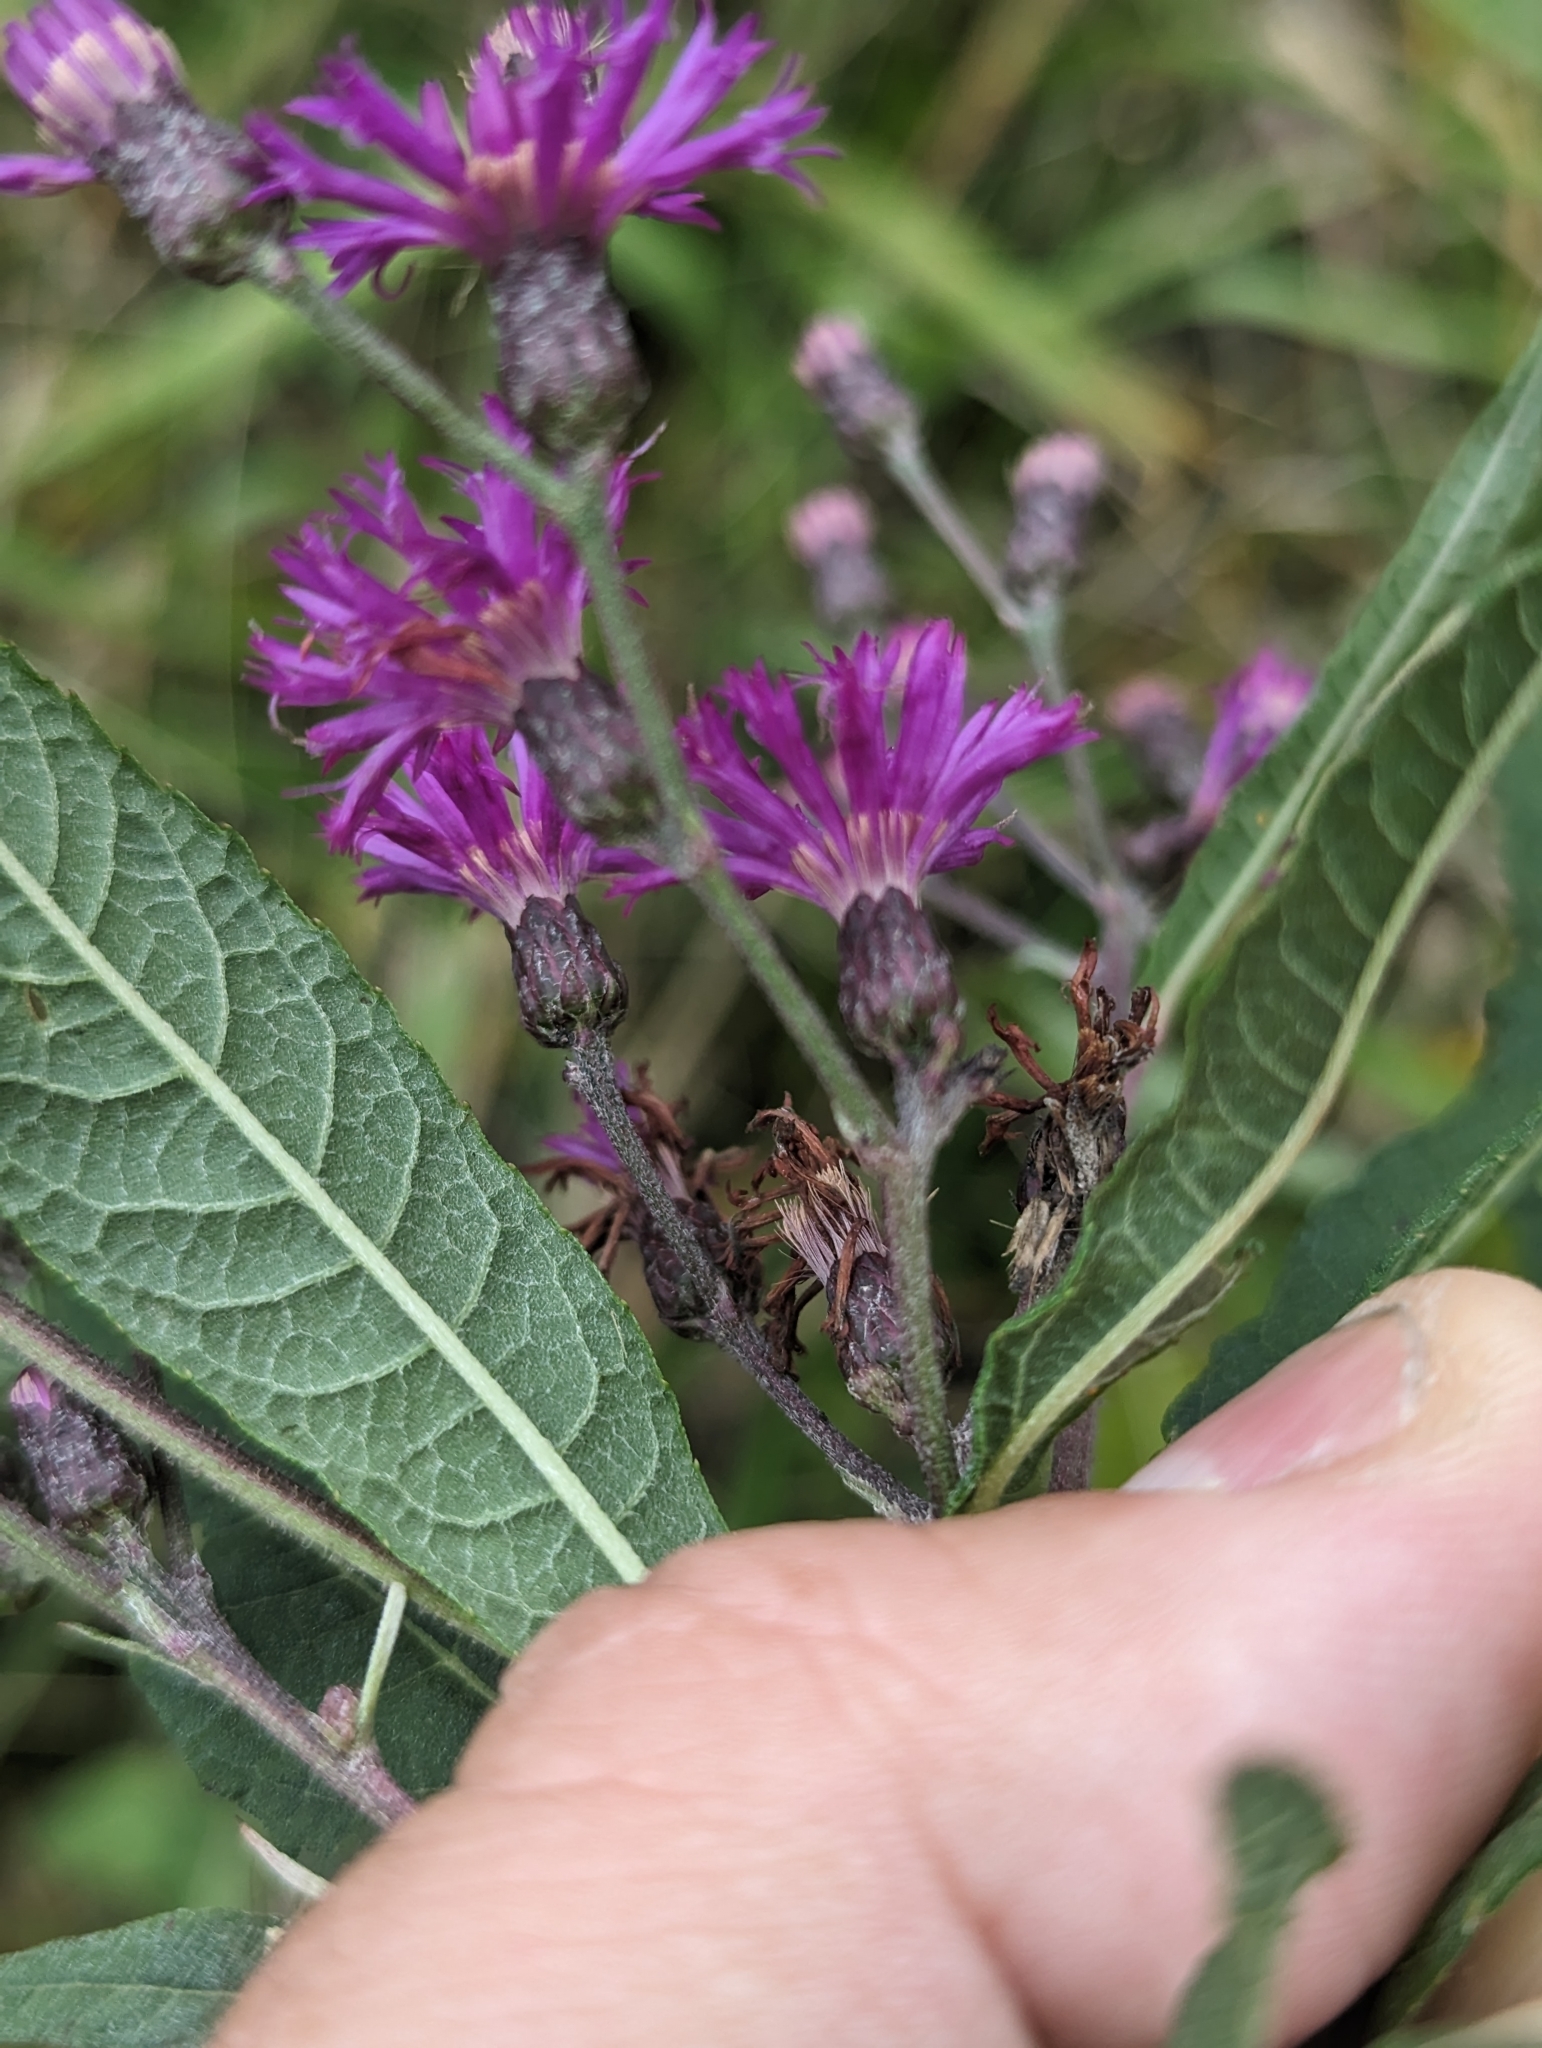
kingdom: Plantae
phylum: Tracheophyta
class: Magnoliopsida
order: Asterales
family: Asteraceae
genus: Vernonia
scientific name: Vernonia gigantea
